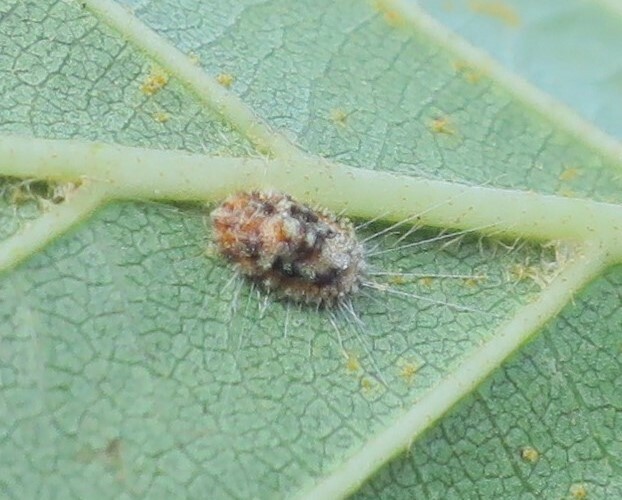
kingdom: Animalia
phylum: Arthropoda
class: Insecta
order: Hemiptera
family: Margarodidae
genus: Icerya
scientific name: Icerya purchasi
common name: Cottony cushion scale
